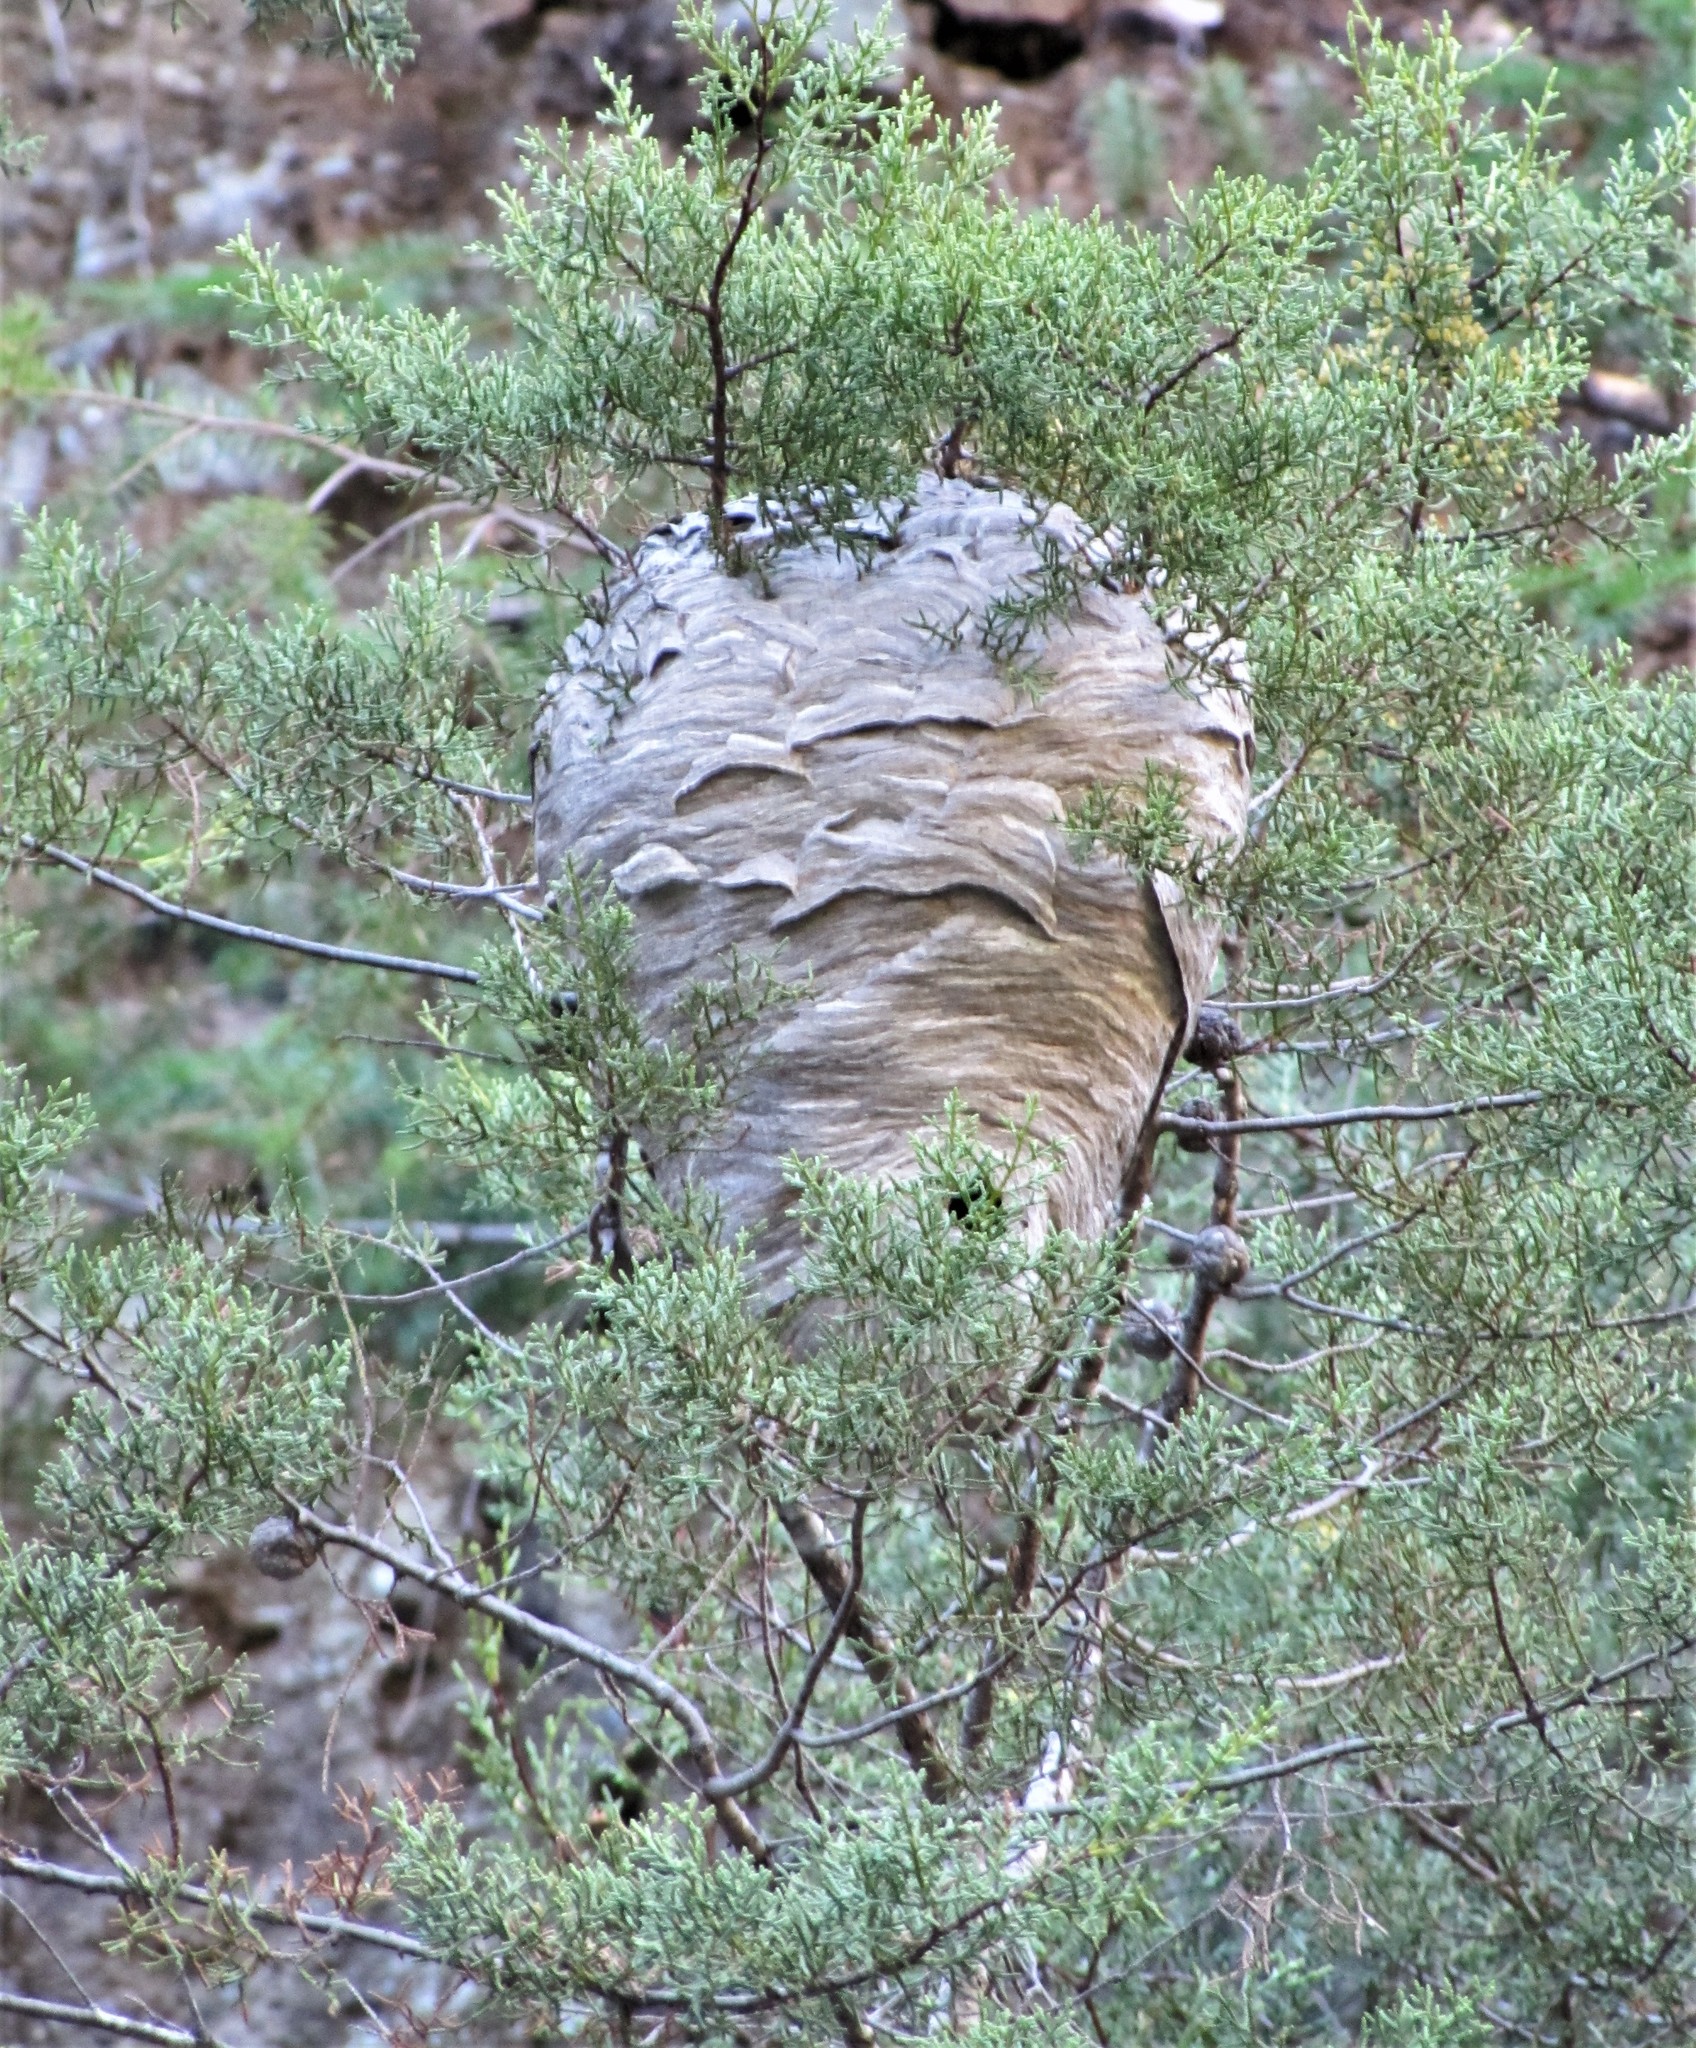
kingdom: Animalia
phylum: Arthropoda
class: Insecta
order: Hymenoptera
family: Vespidae
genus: Dolichovespula
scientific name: Dolichovespula
